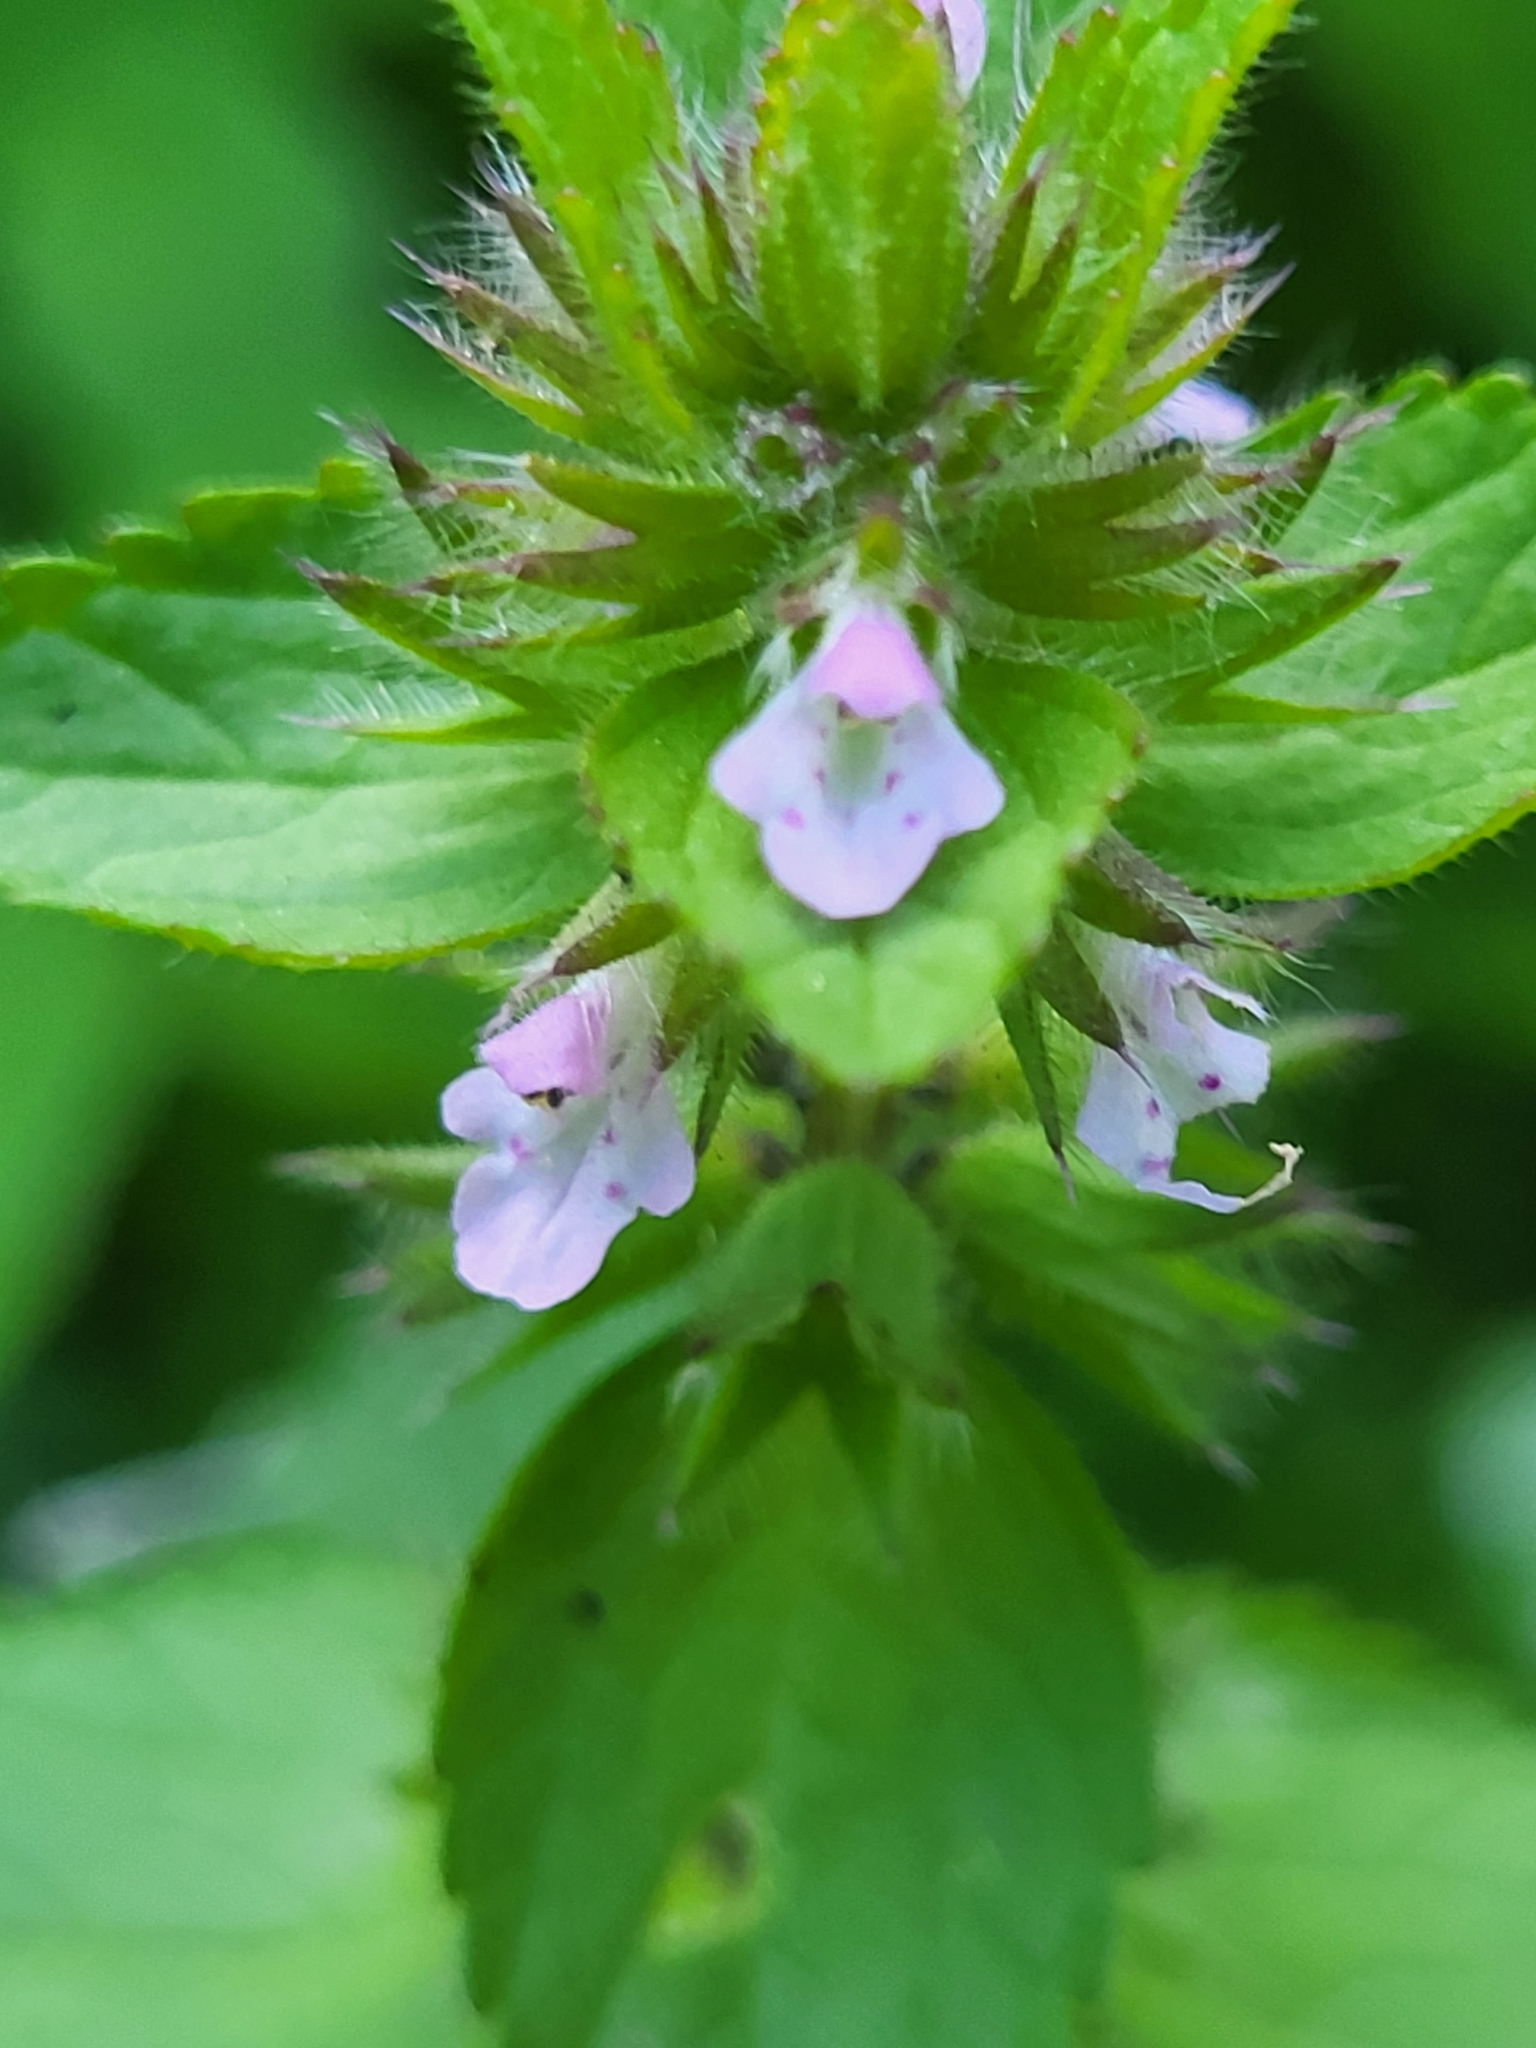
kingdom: Plantae
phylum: Tracheophyta
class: Magnoliopsida
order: Lamiales
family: Lamiaceae
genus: Stachys
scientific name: Stachys arvensis
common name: Field woundwort
